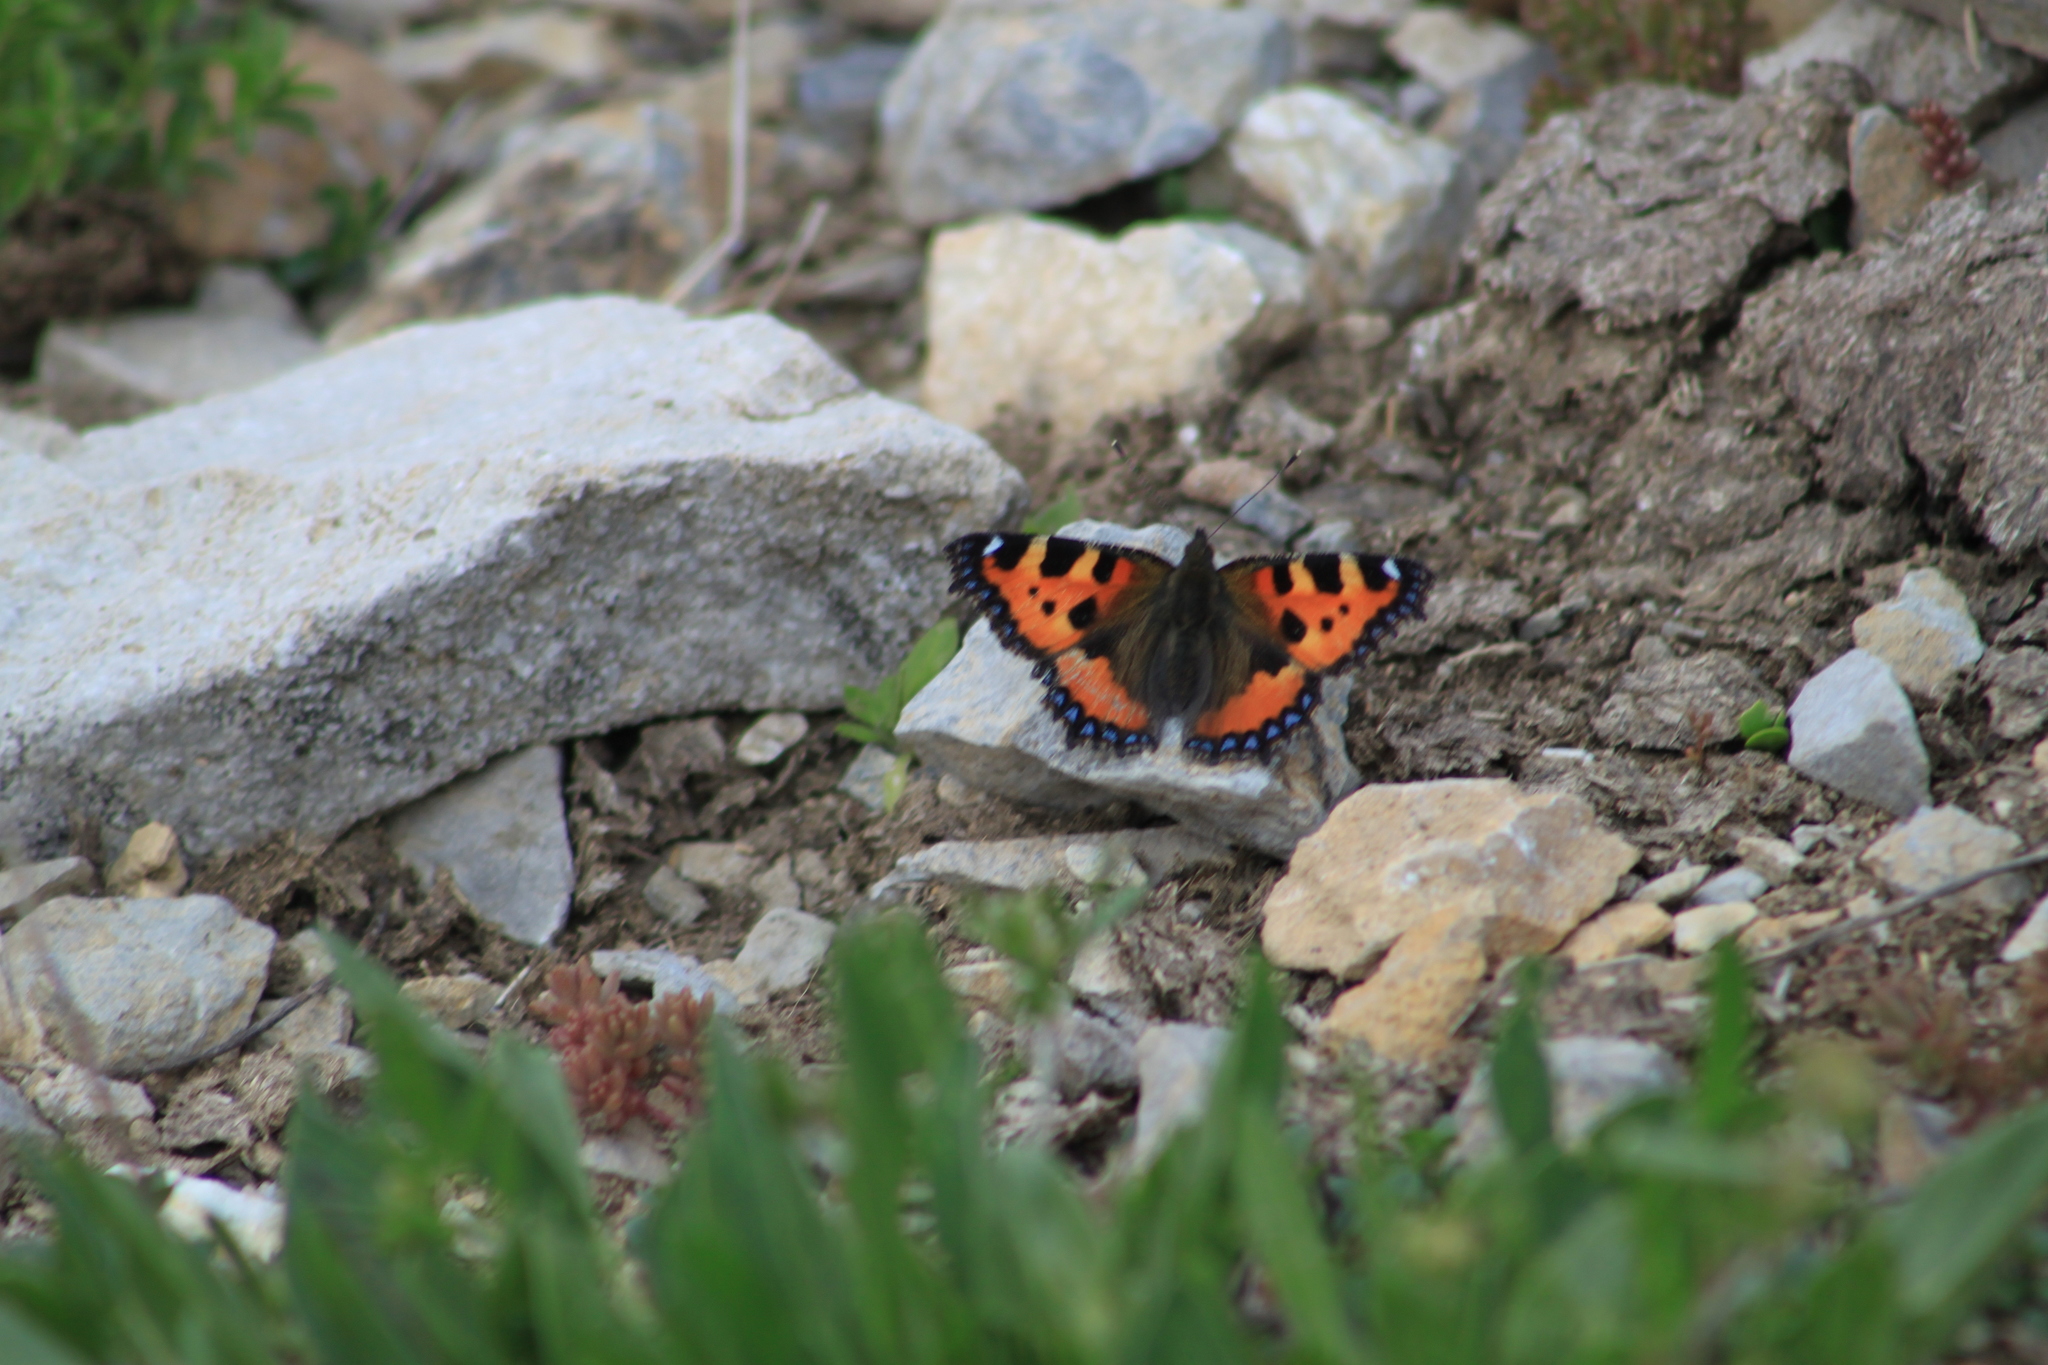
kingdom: Animalia
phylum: Arthropoda
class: Insecta
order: Lepidoptera
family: Nymphalidae
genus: Aglais
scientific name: Aglais urticae
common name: Small tortoiseshell
